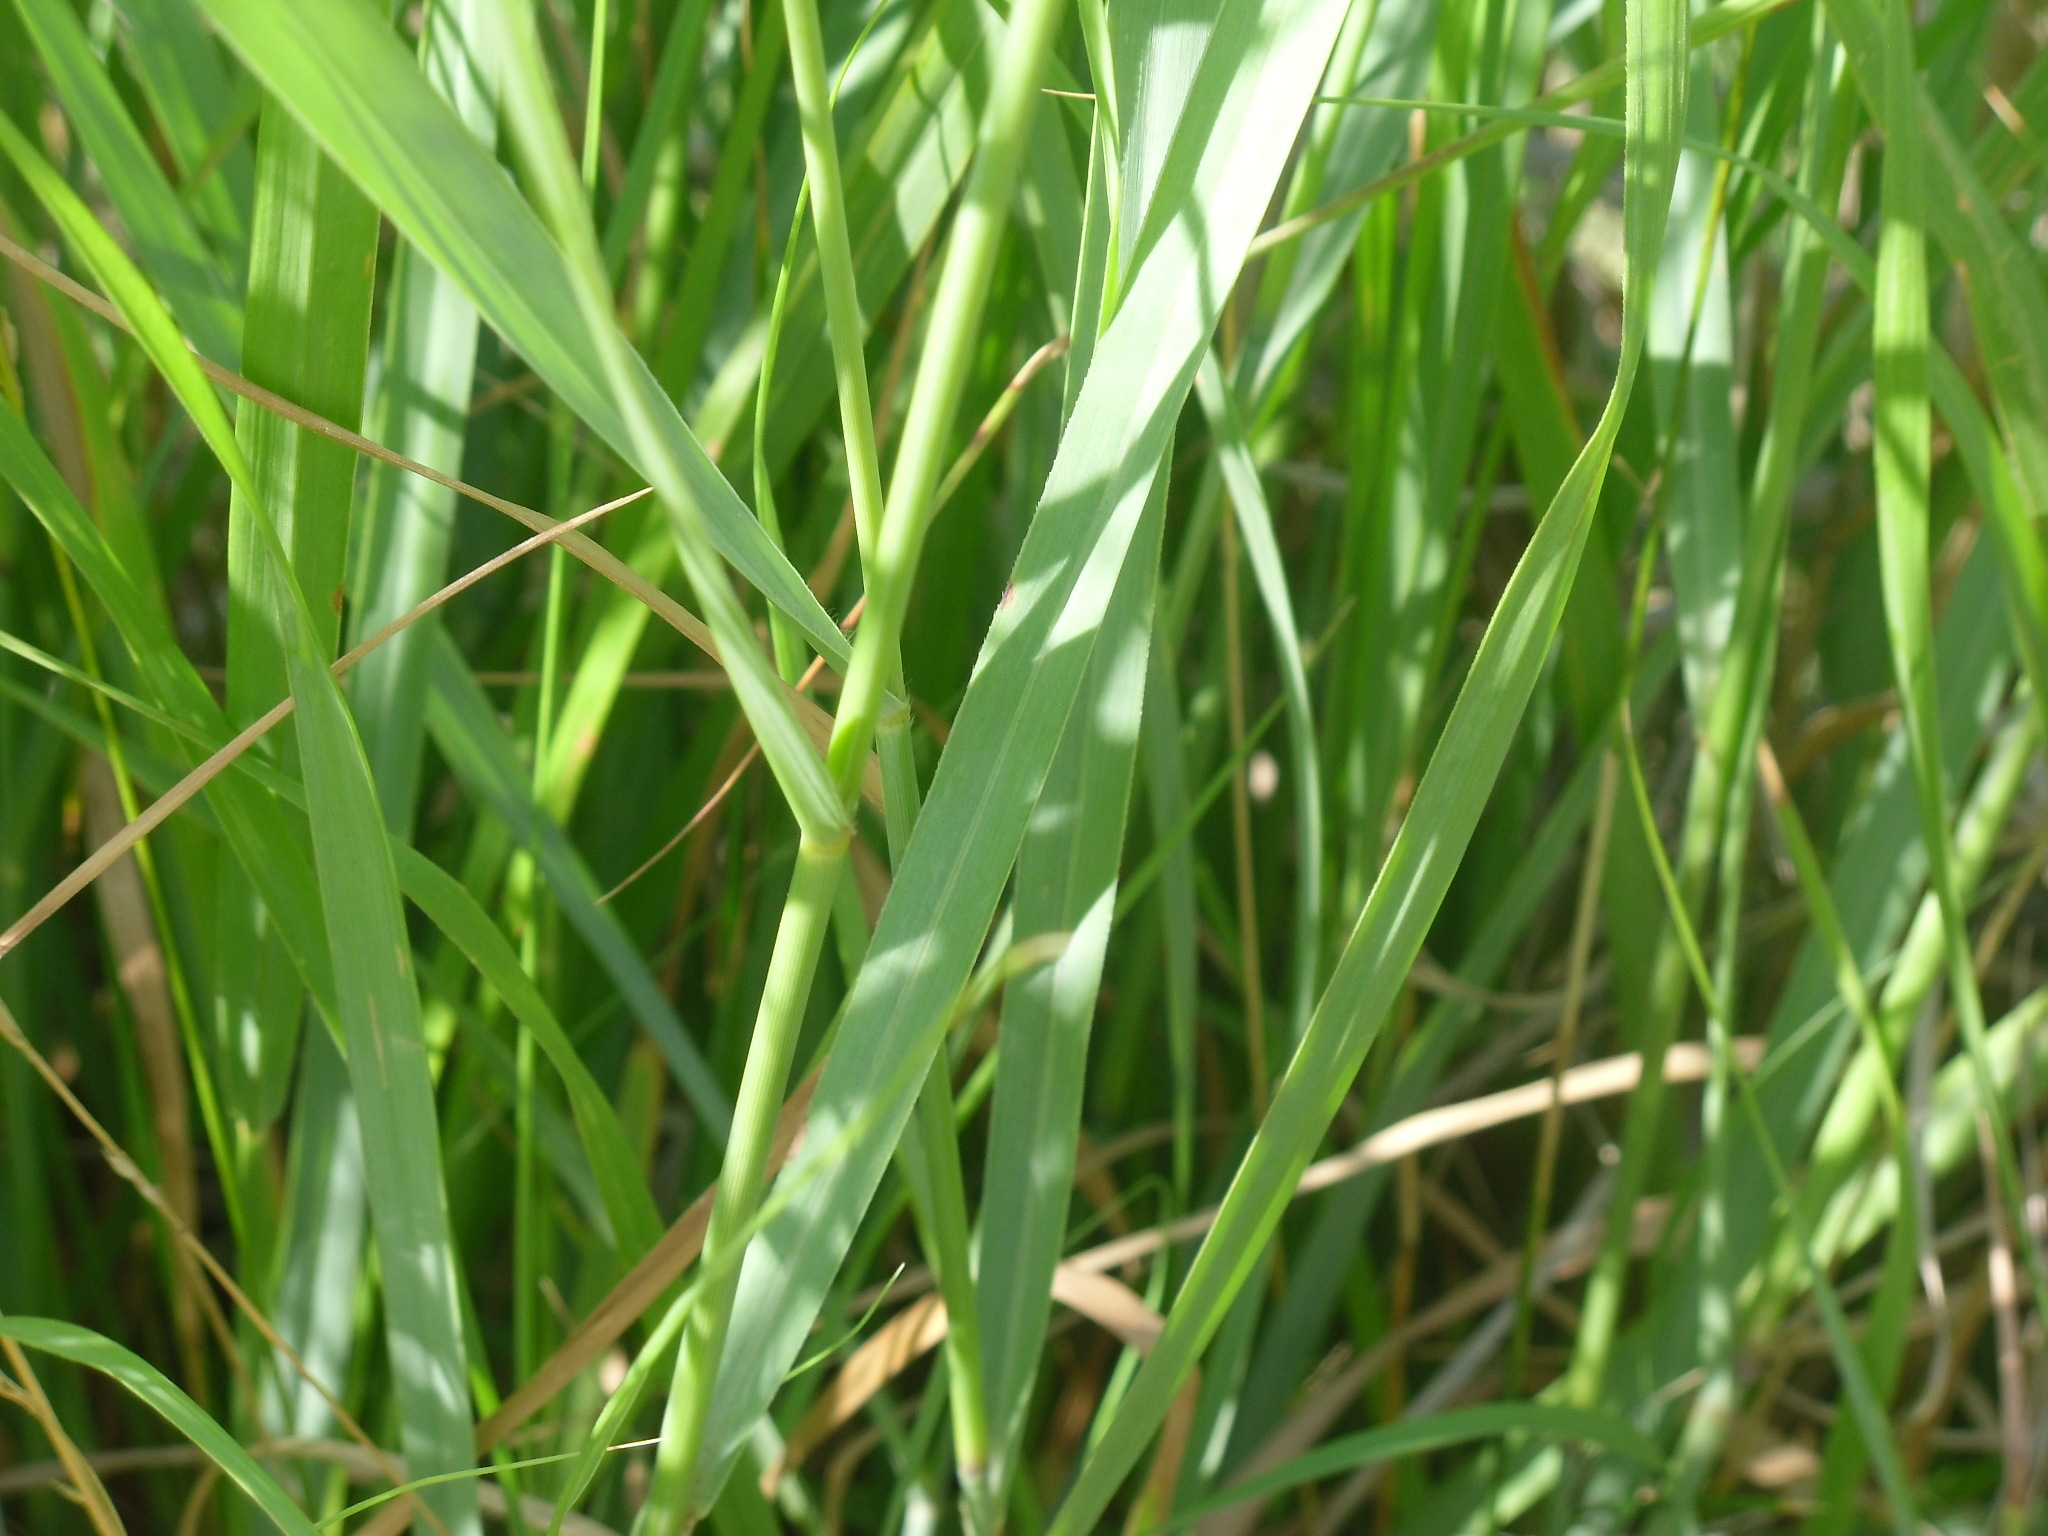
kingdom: Plantae
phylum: Tracheophyta
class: Liliopsida
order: Poales
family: Poaceae
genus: Panicum
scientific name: Panicum virgatum
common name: Switchgrass
